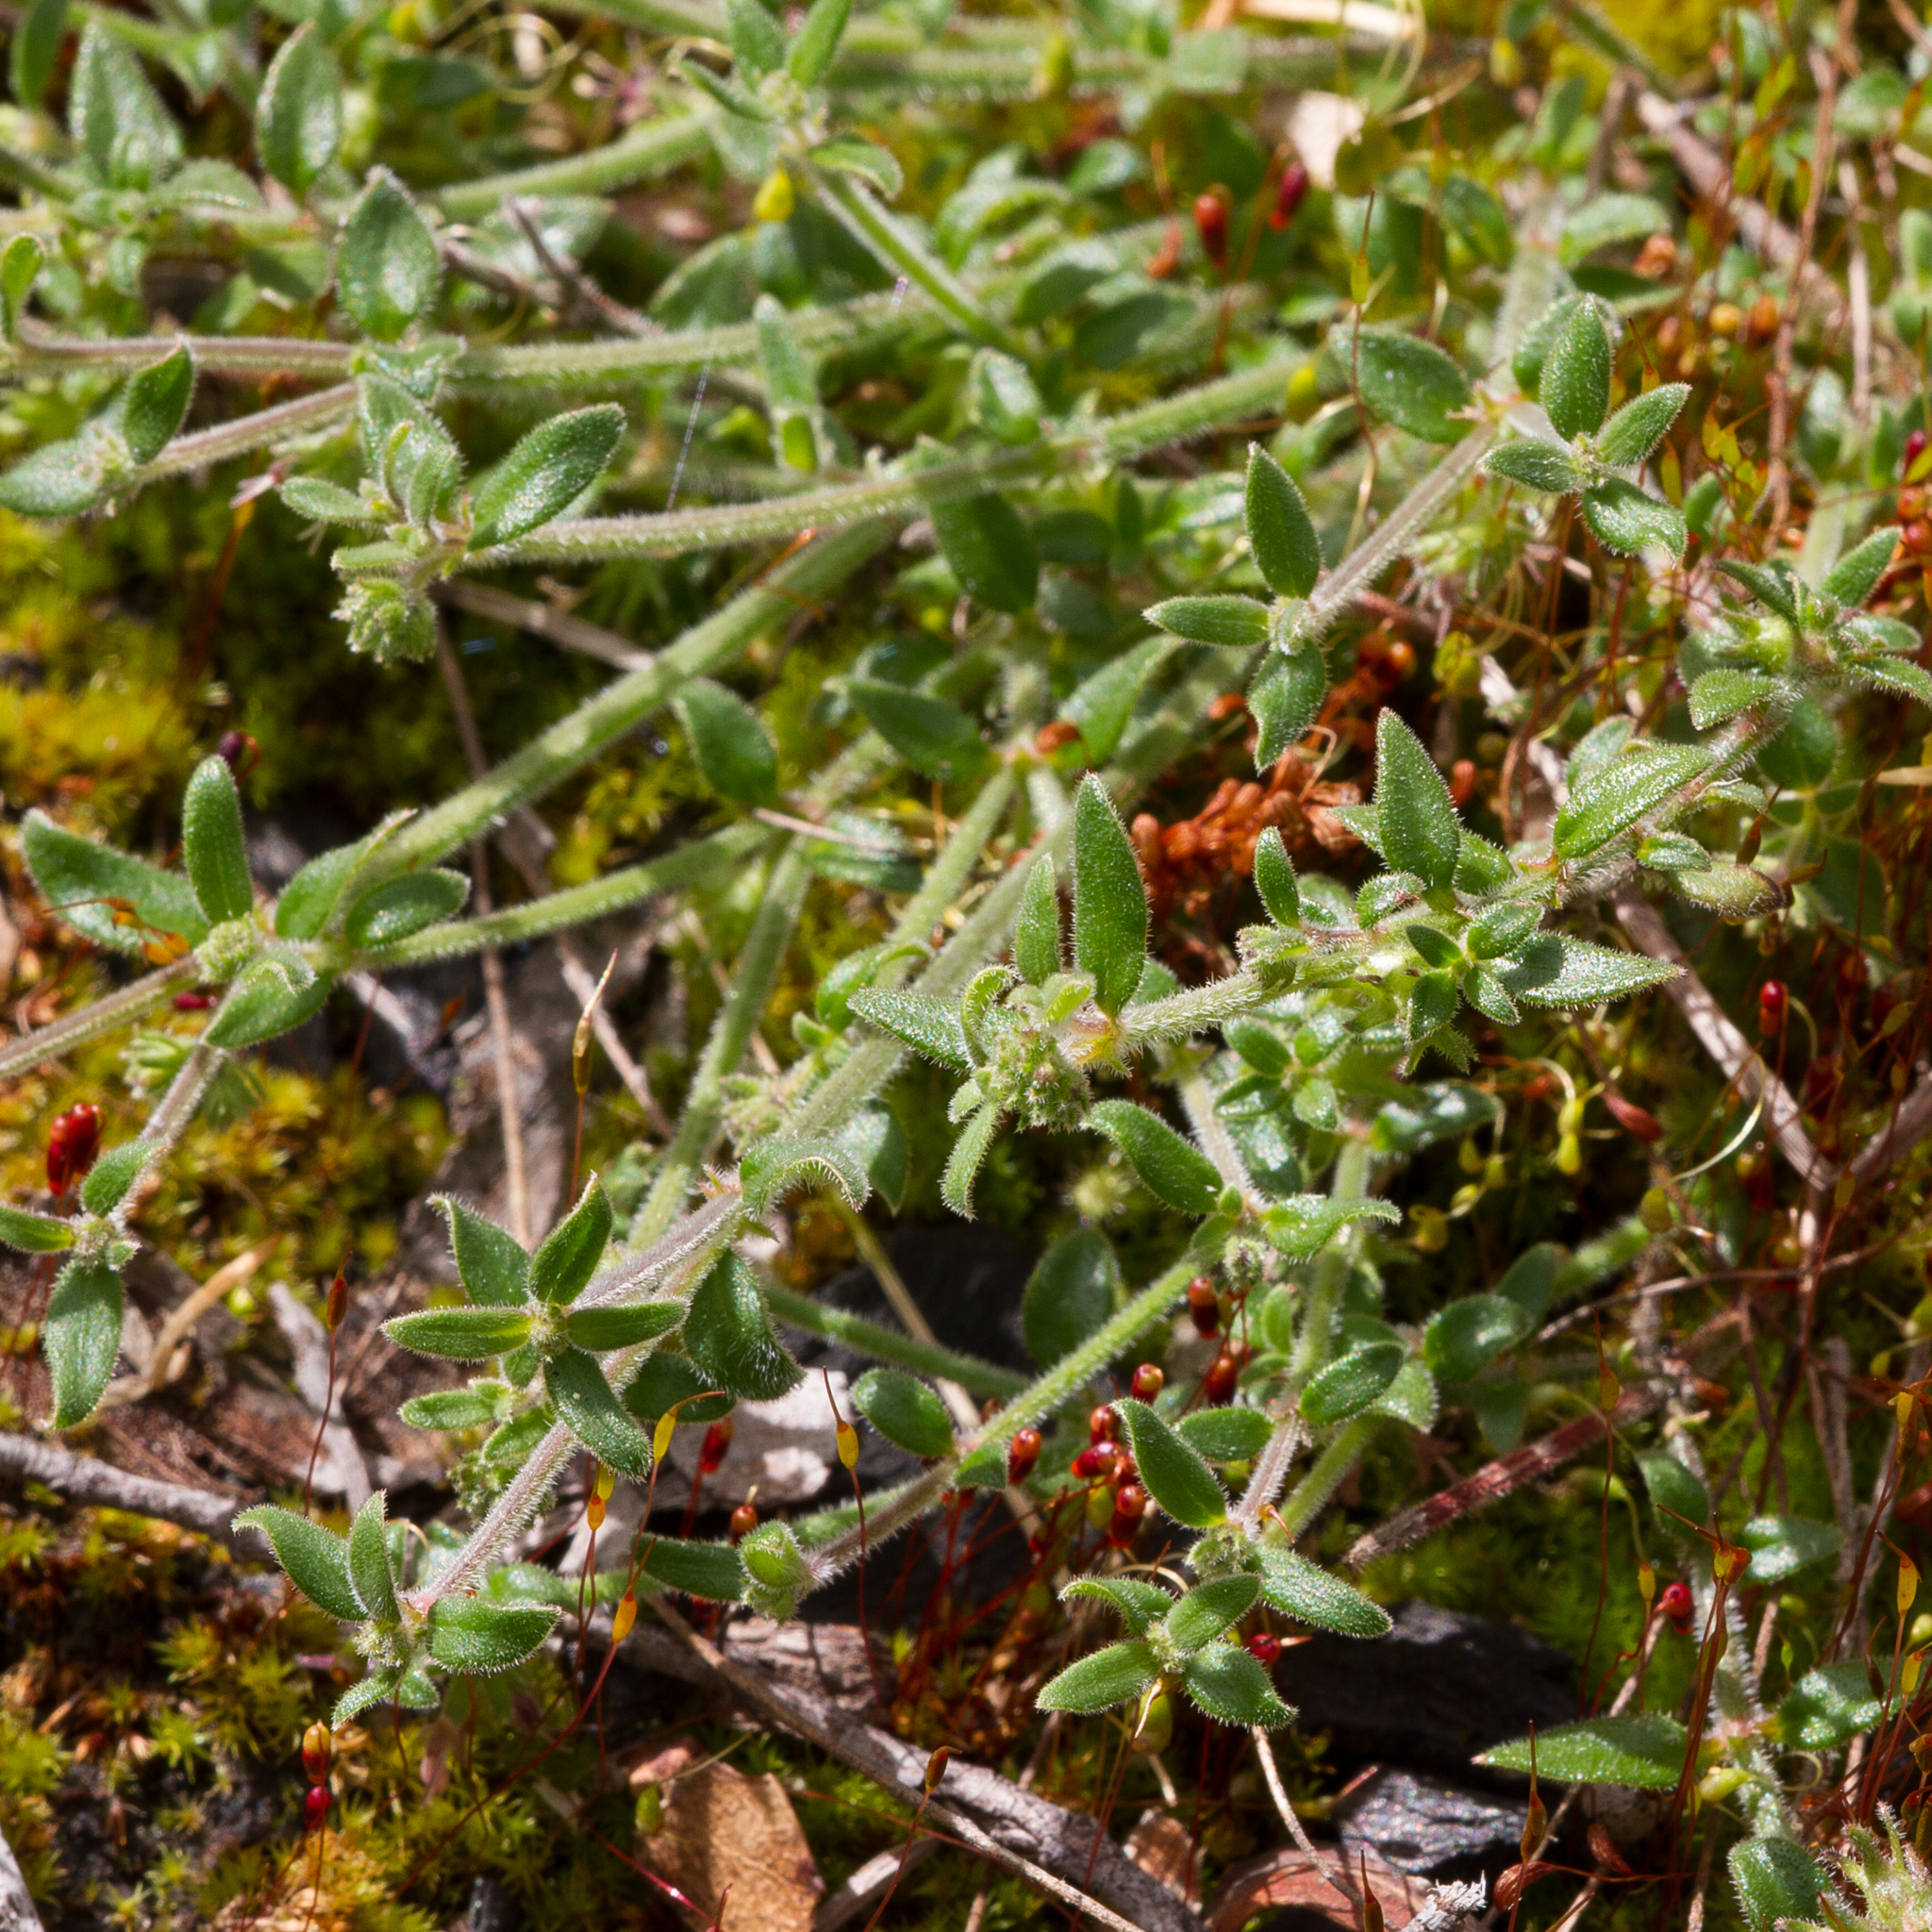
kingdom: Plantae
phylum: Tracheophyta
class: Magnoliopsida
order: Gentianales
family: Rubiaceae
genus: Opercularia
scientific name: Opercularia varia
